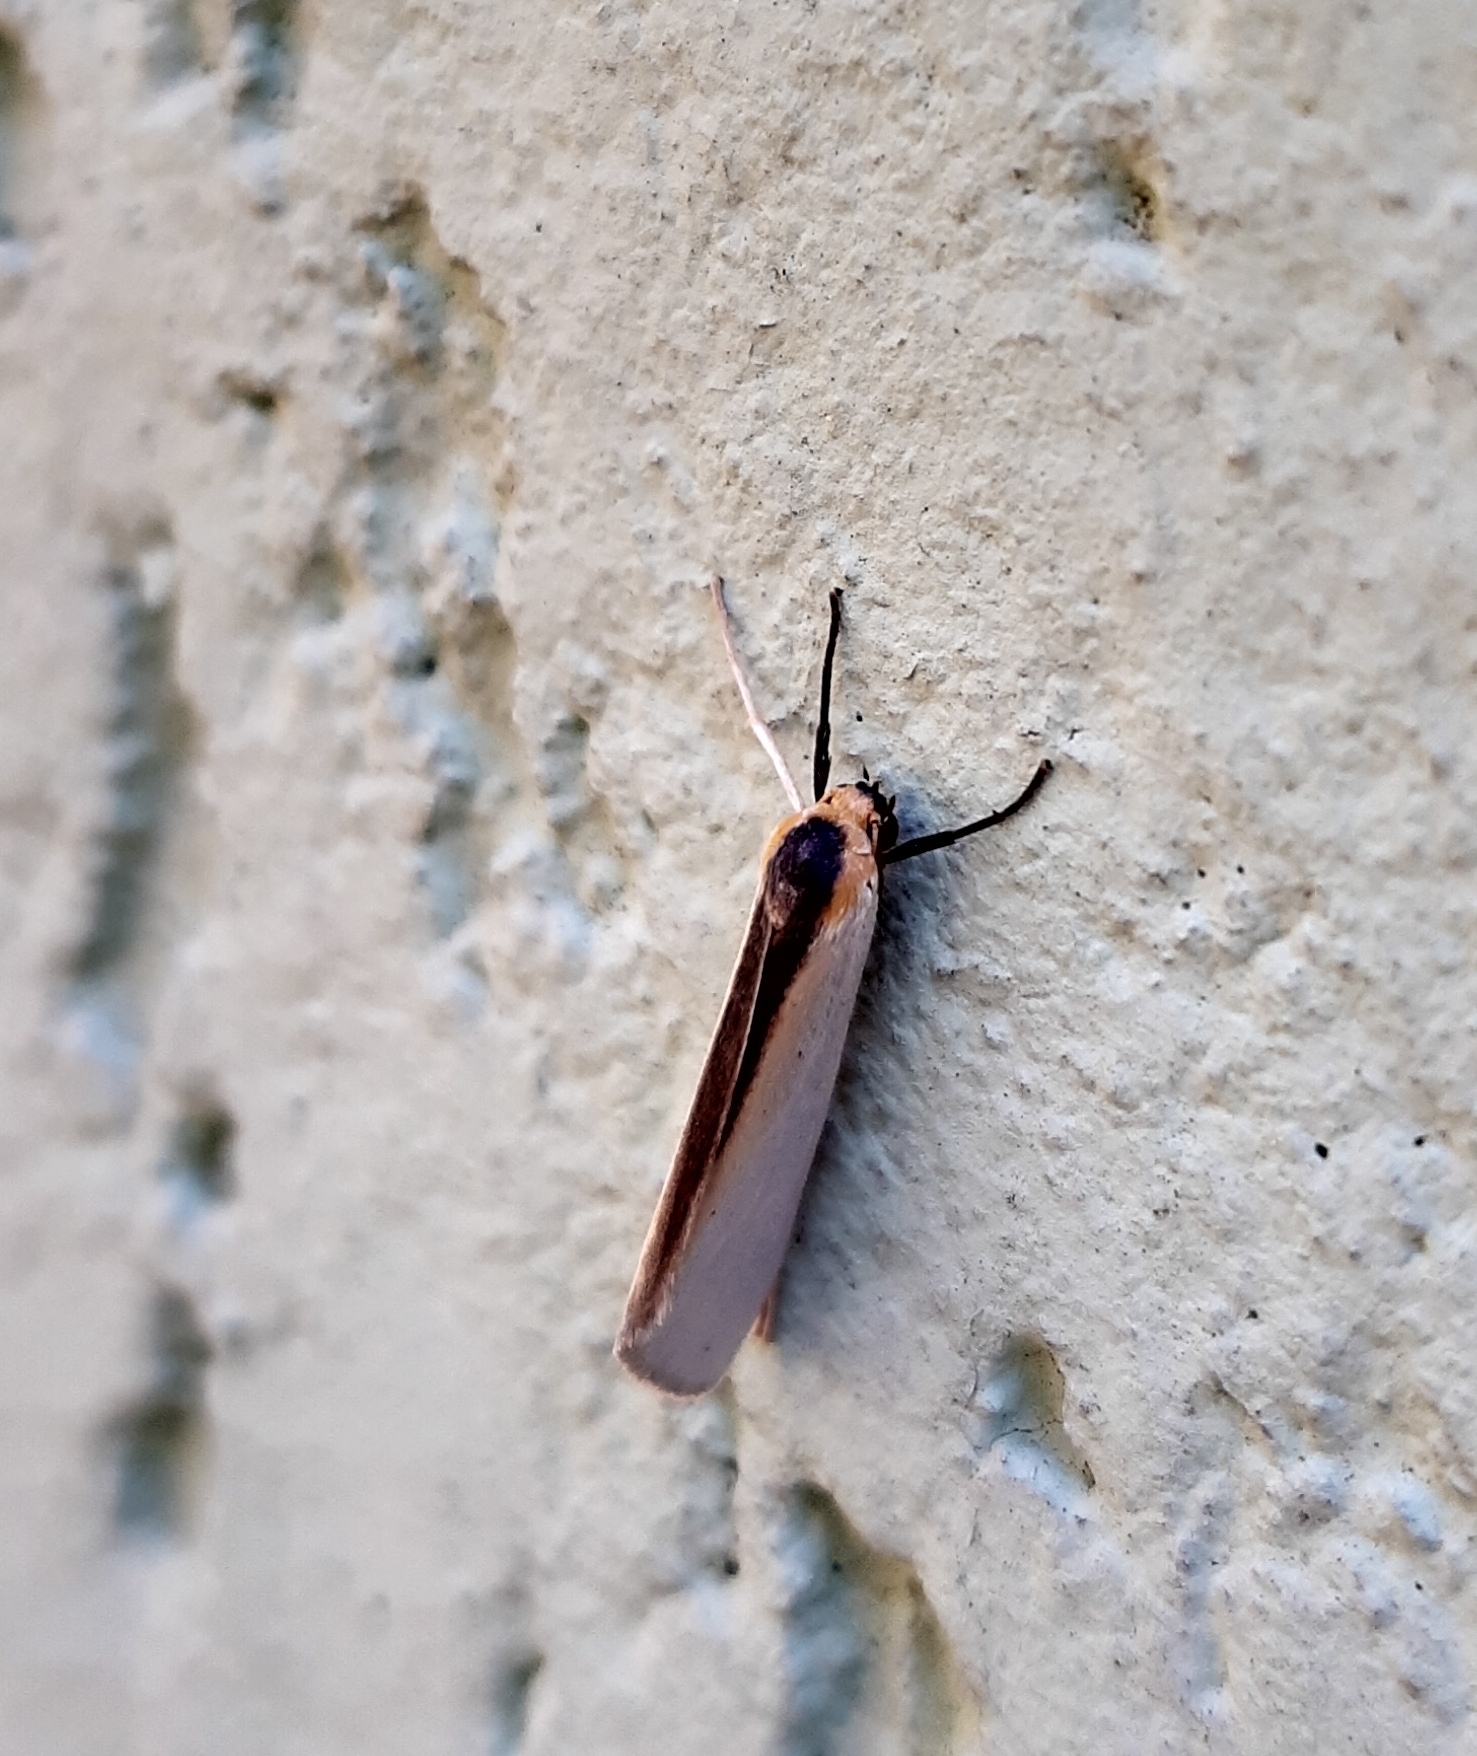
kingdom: Animalia
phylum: Arthropoda
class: Insecta
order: Lepidoptera
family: Erebidae
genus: Agylla
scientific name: Agylla separata
